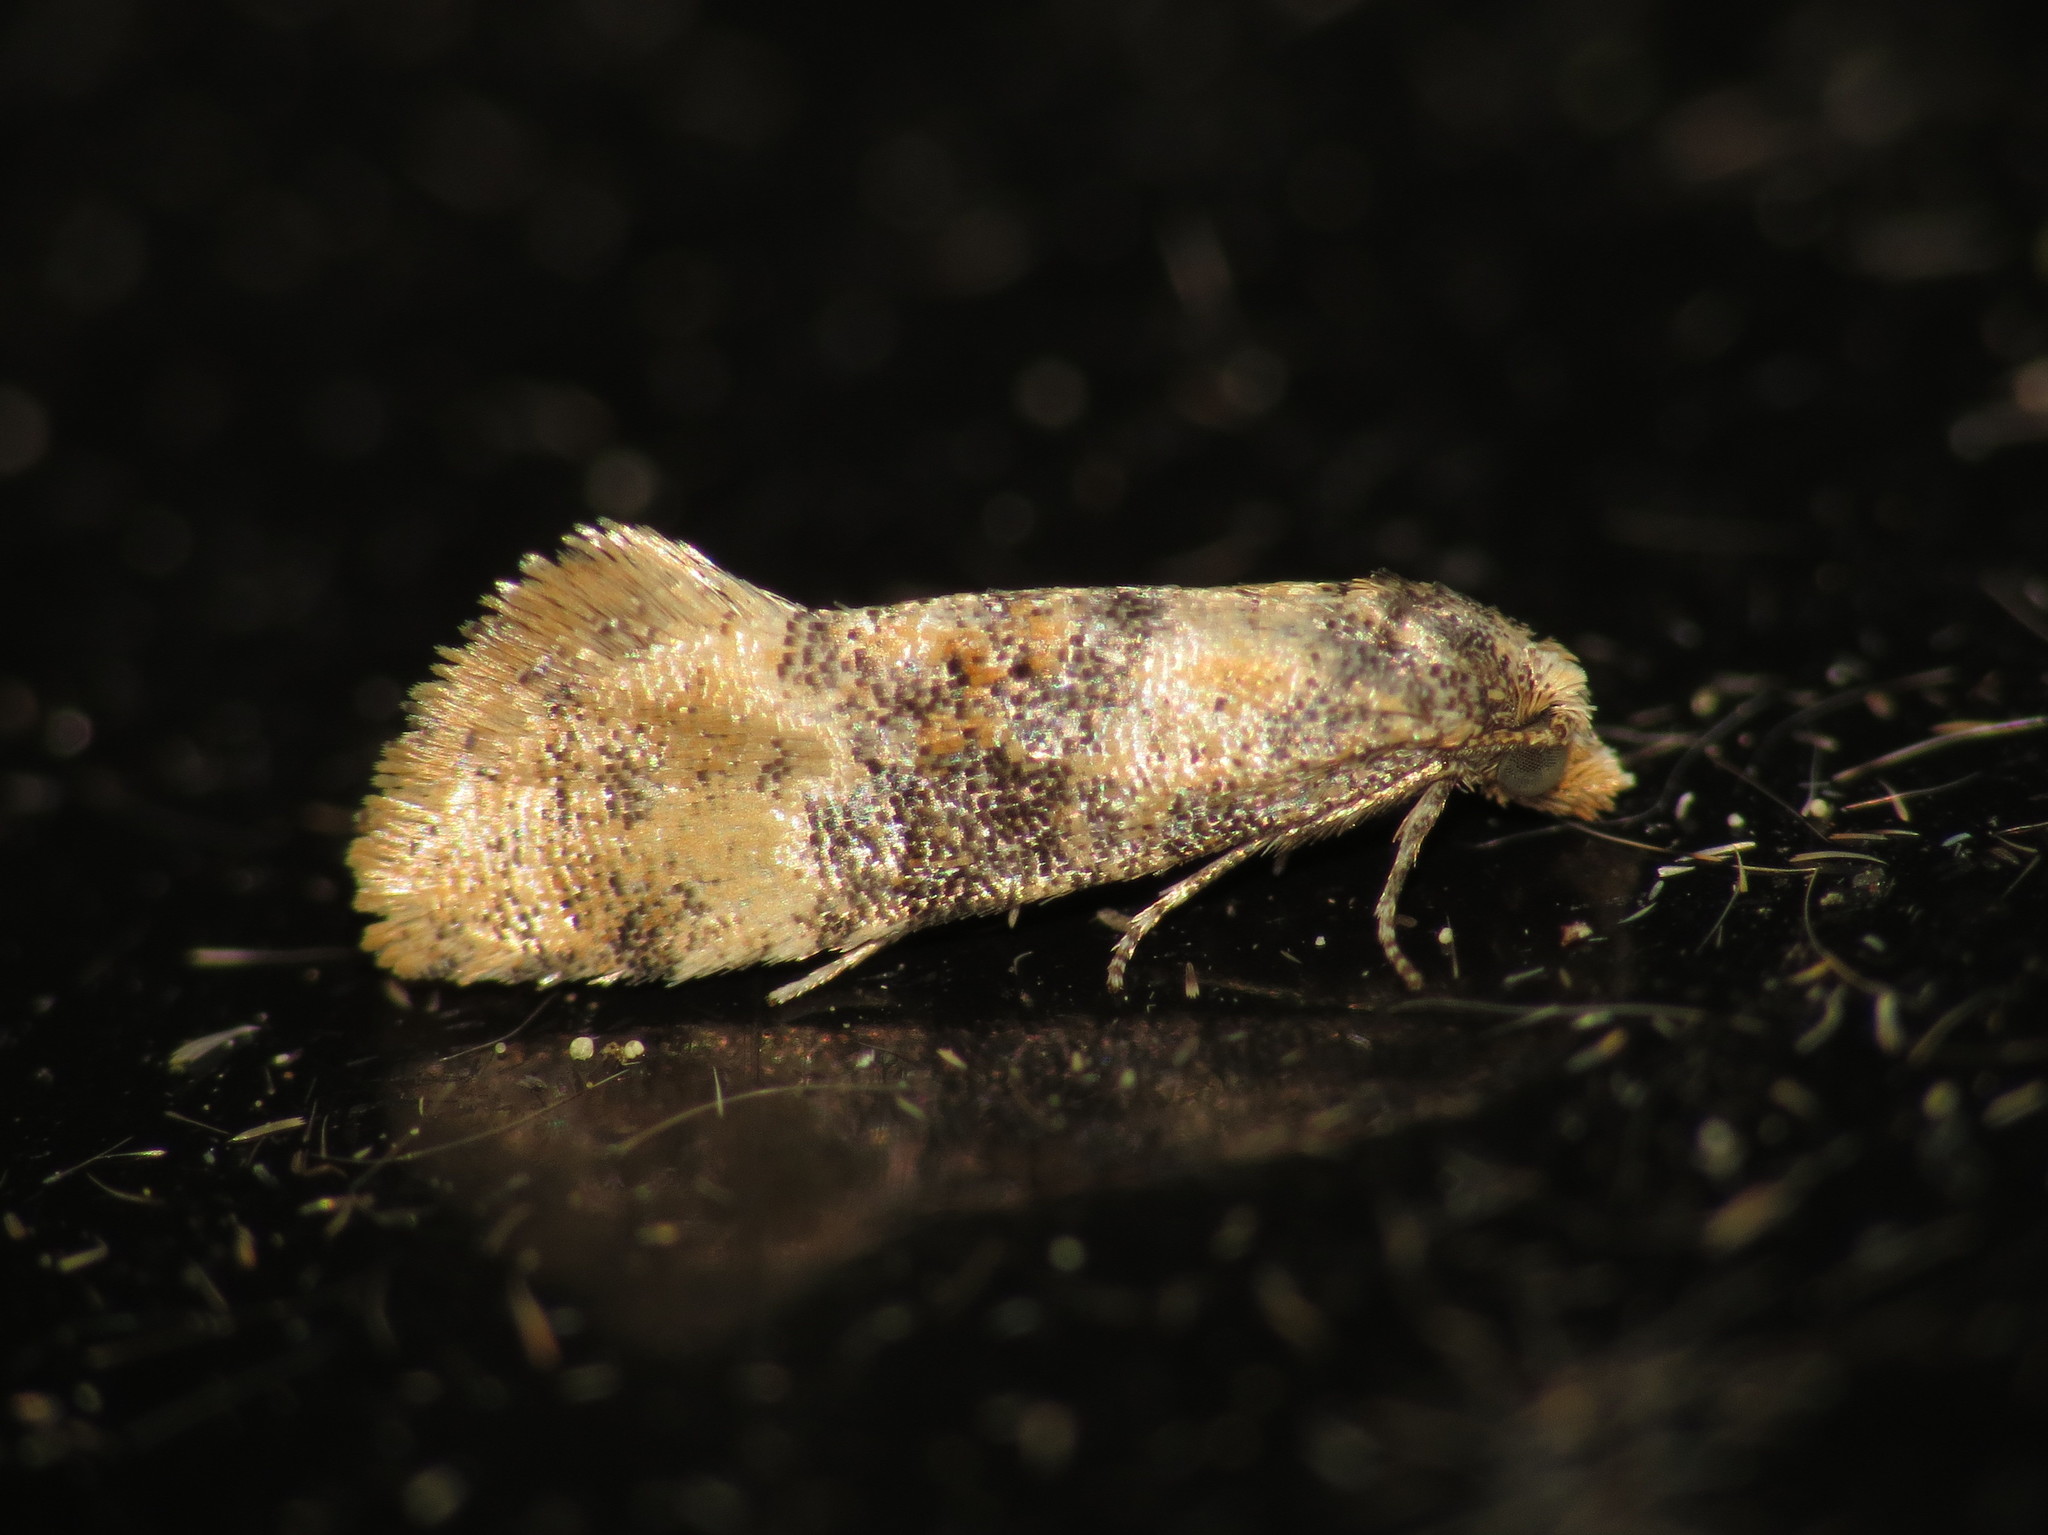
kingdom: Animalia
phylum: Arthropoda
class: Insecta
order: Lepidoptera
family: Tortricidae
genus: Thyraylia
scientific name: Thyraylia nana
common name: Birch conch
